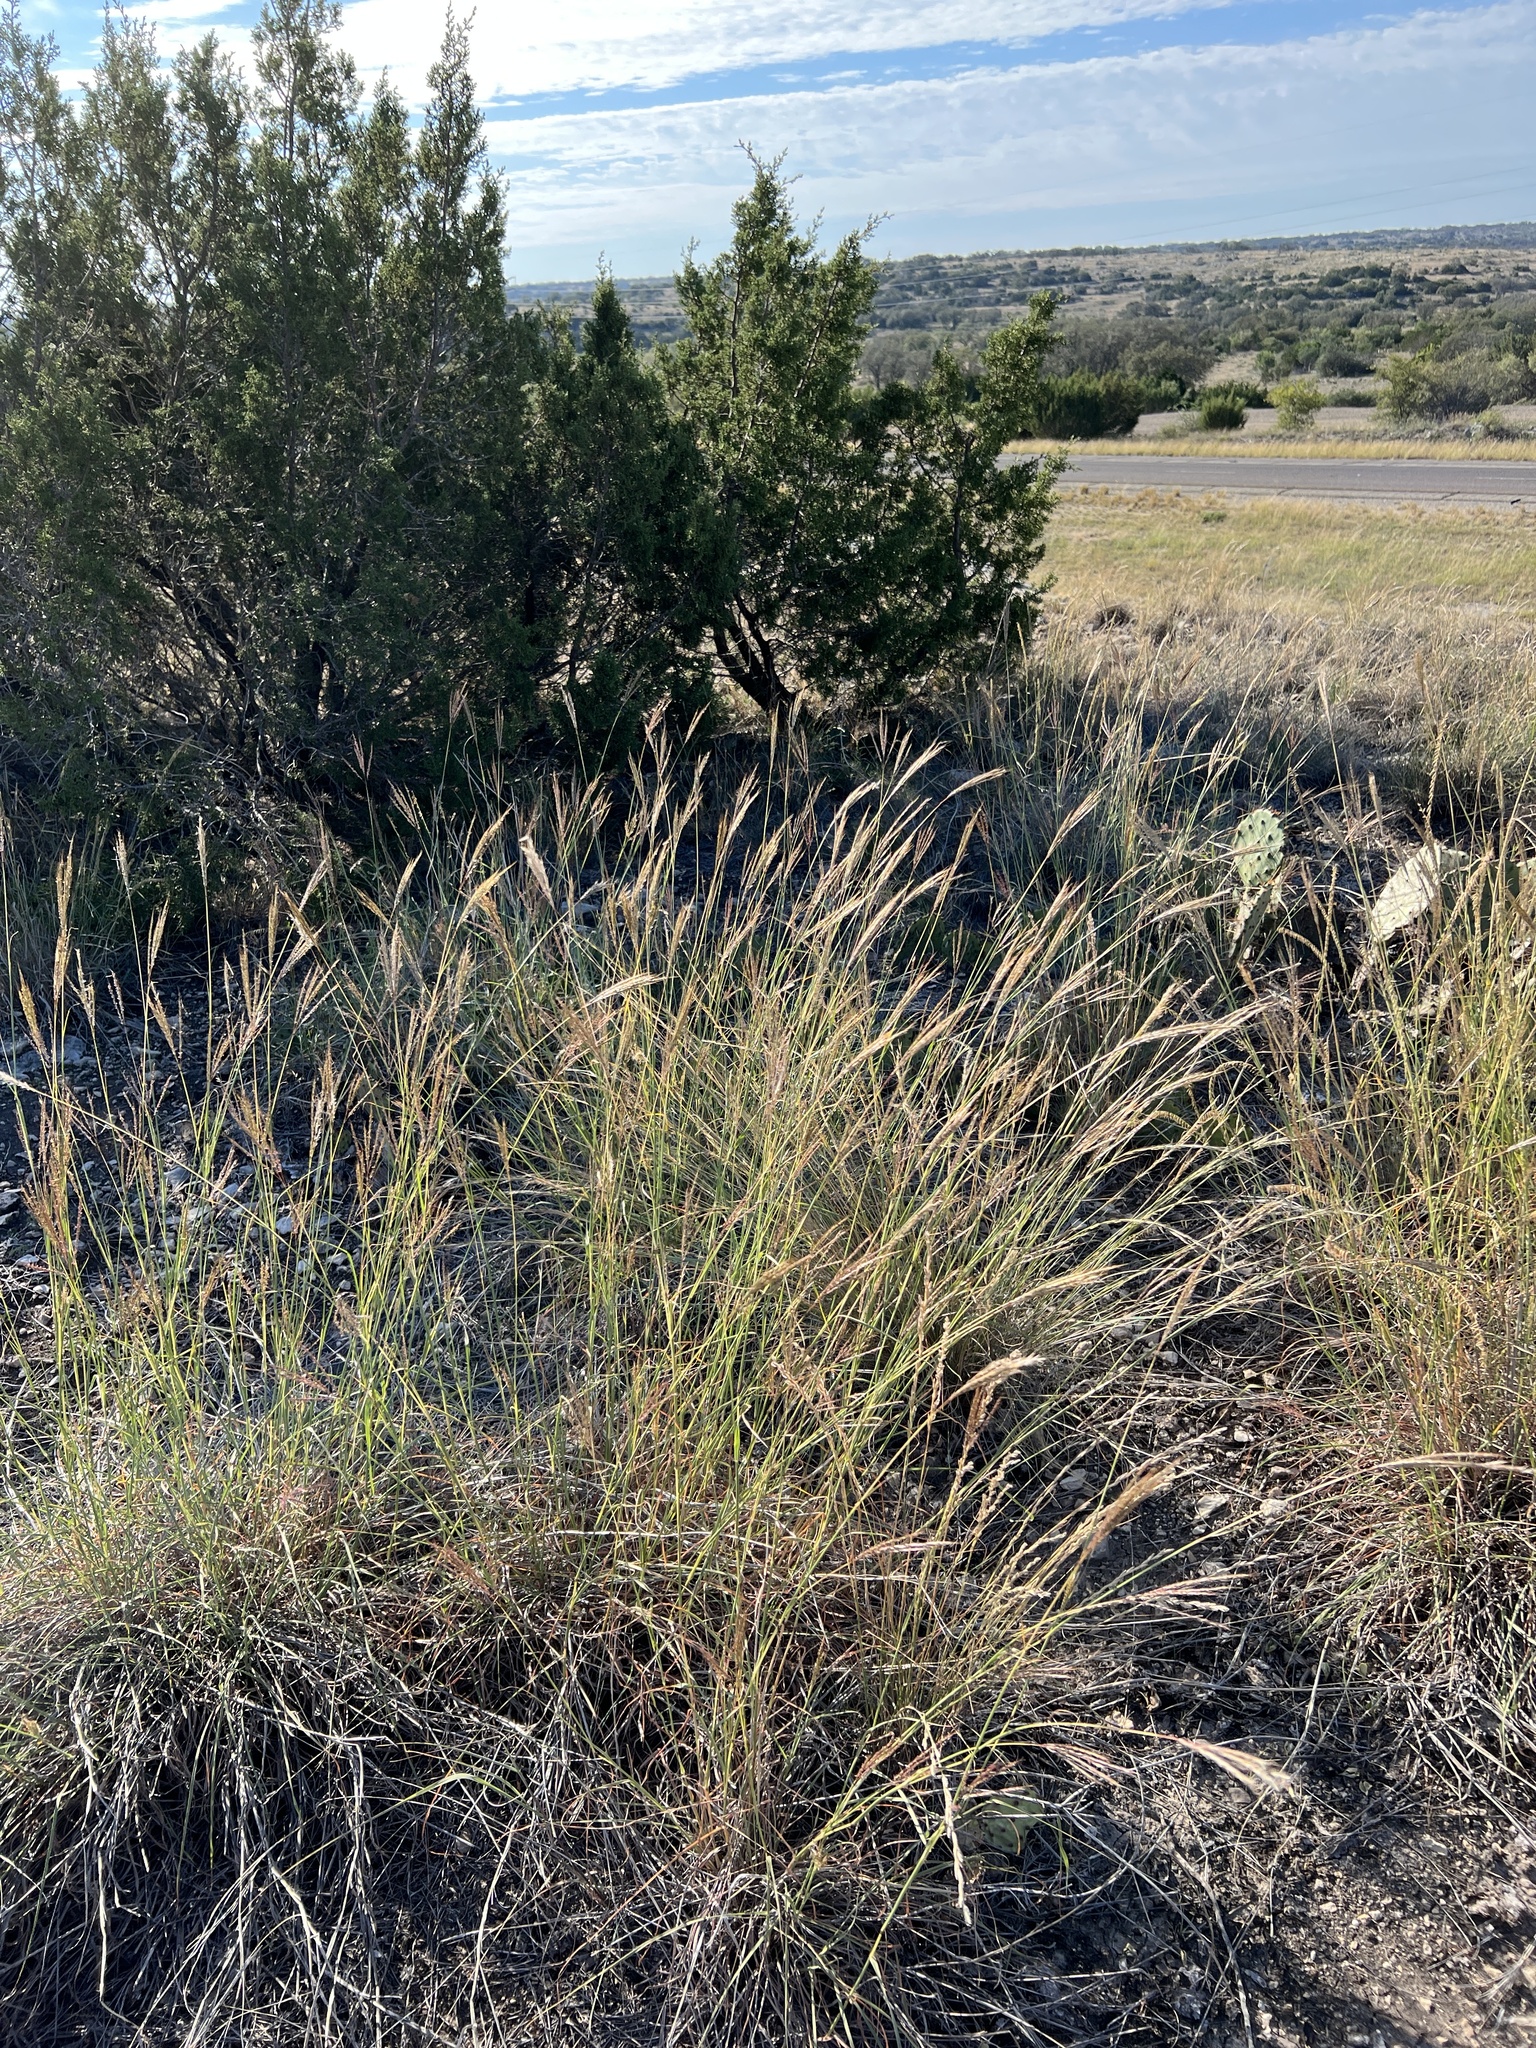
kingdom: Plantae
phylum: Tracheophyta
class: Liliopsida
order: Poales
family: Poaceae
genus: Bothriochloa
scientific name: Bothriochloa ischaemum
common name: Yellow bluestem
